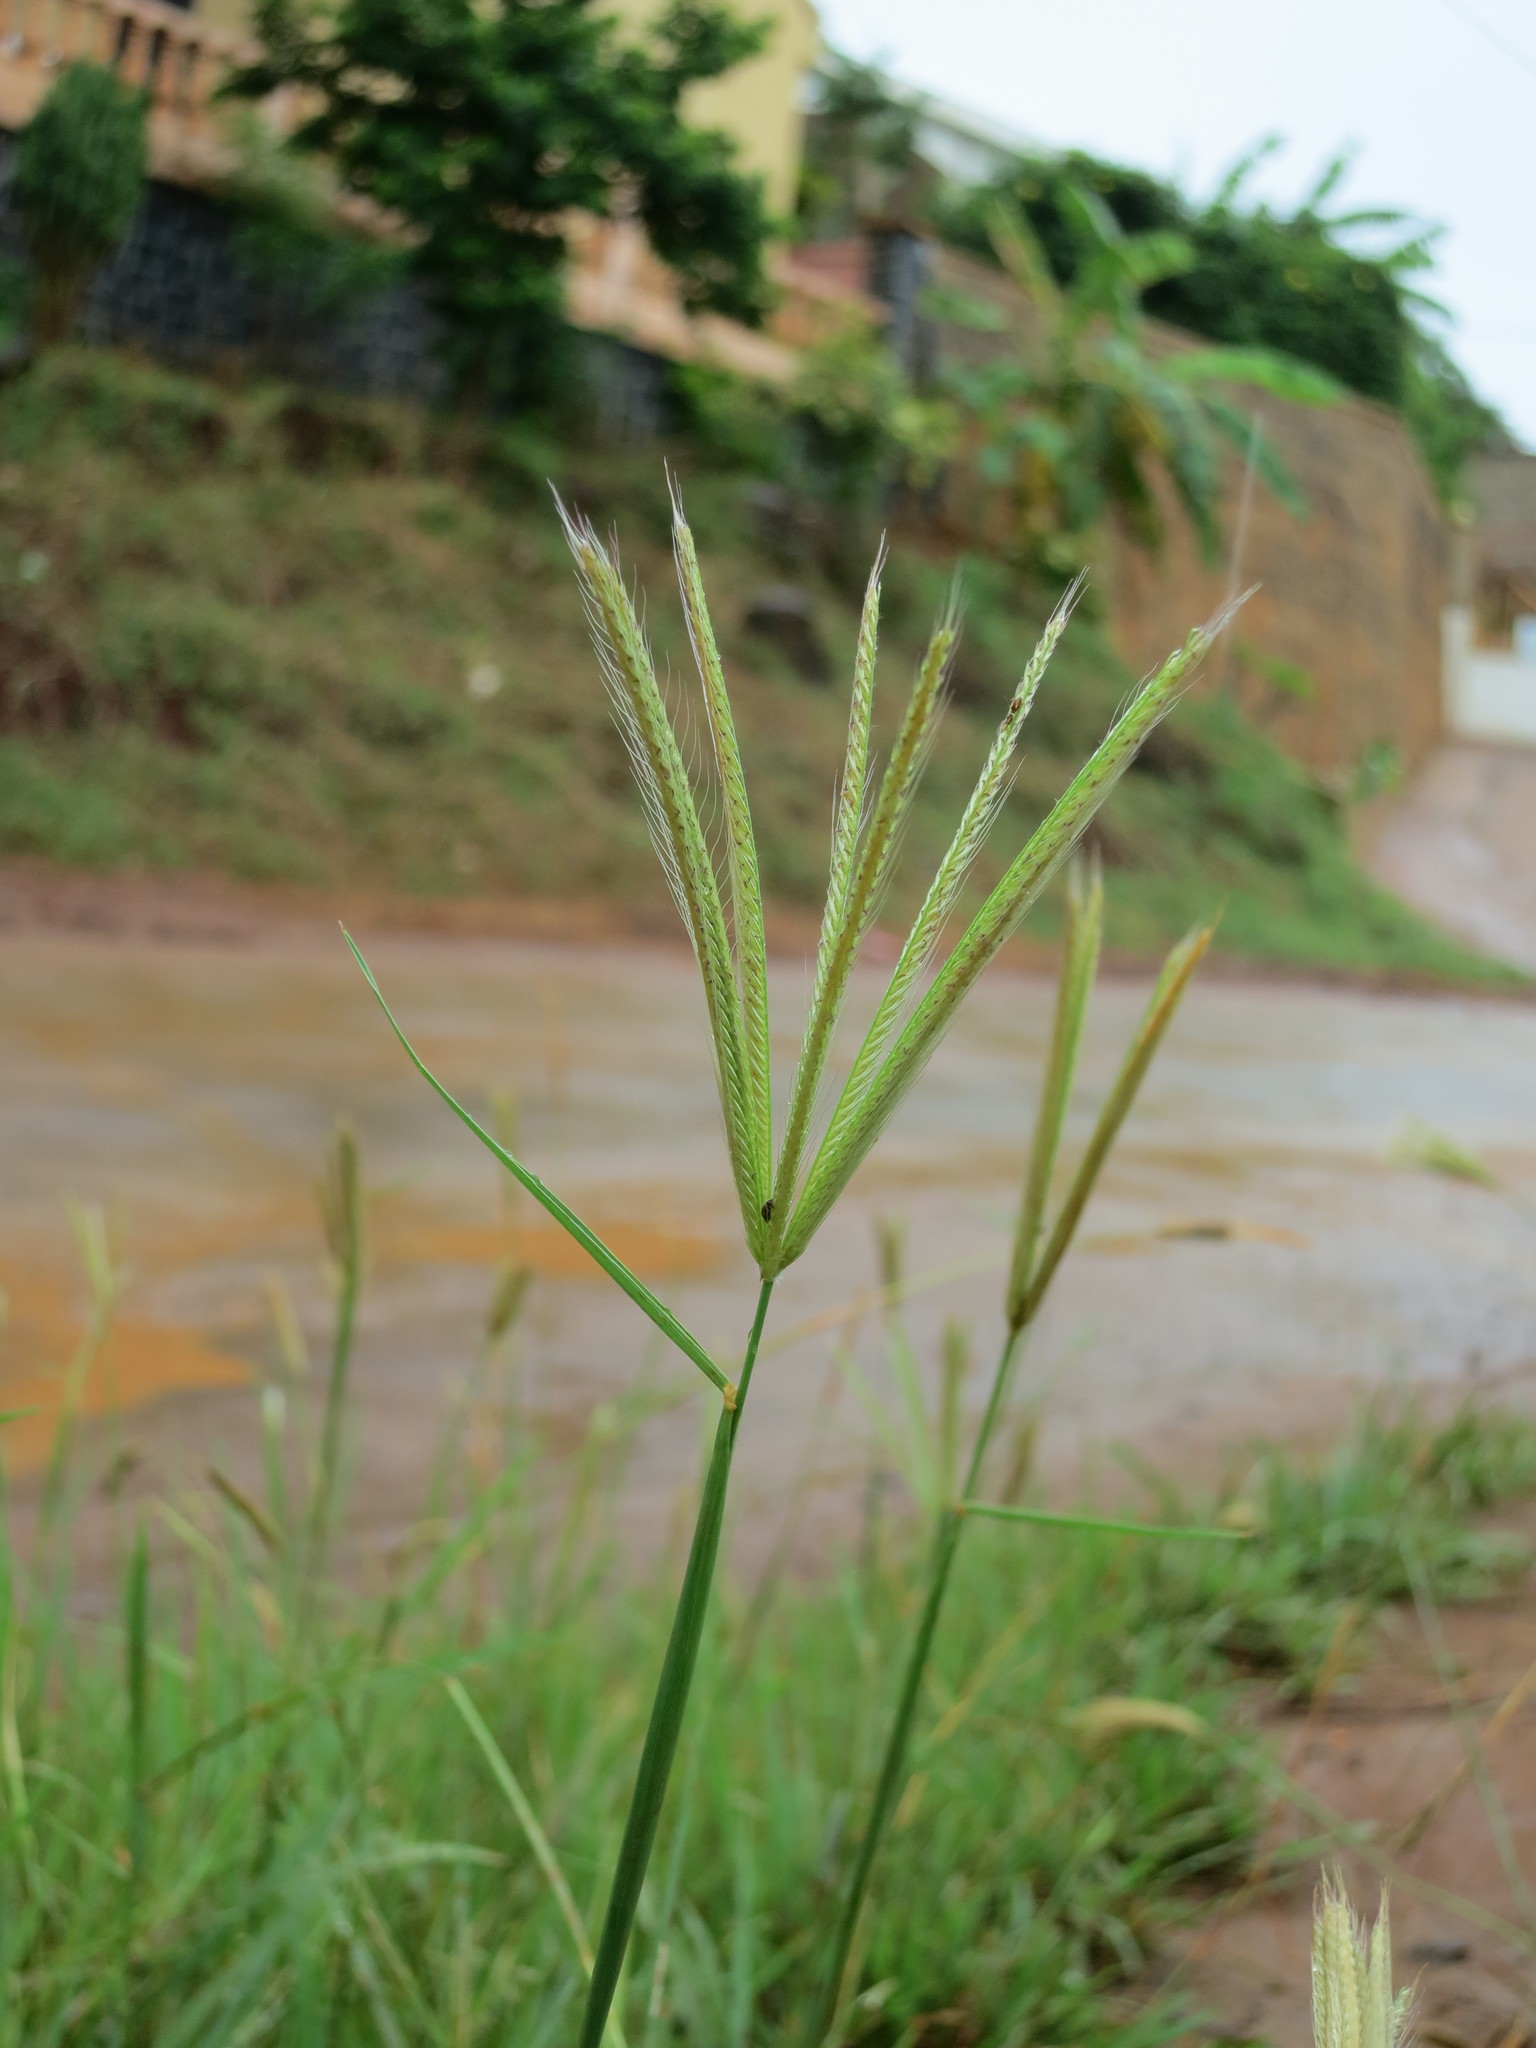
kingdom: Plantae
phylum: Tracheophyta
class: Liliopsida
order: Poales
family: Poaceae
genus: Enteropogon
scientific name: Enteropogon prieurii
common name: Prieur's umbrellagrass
